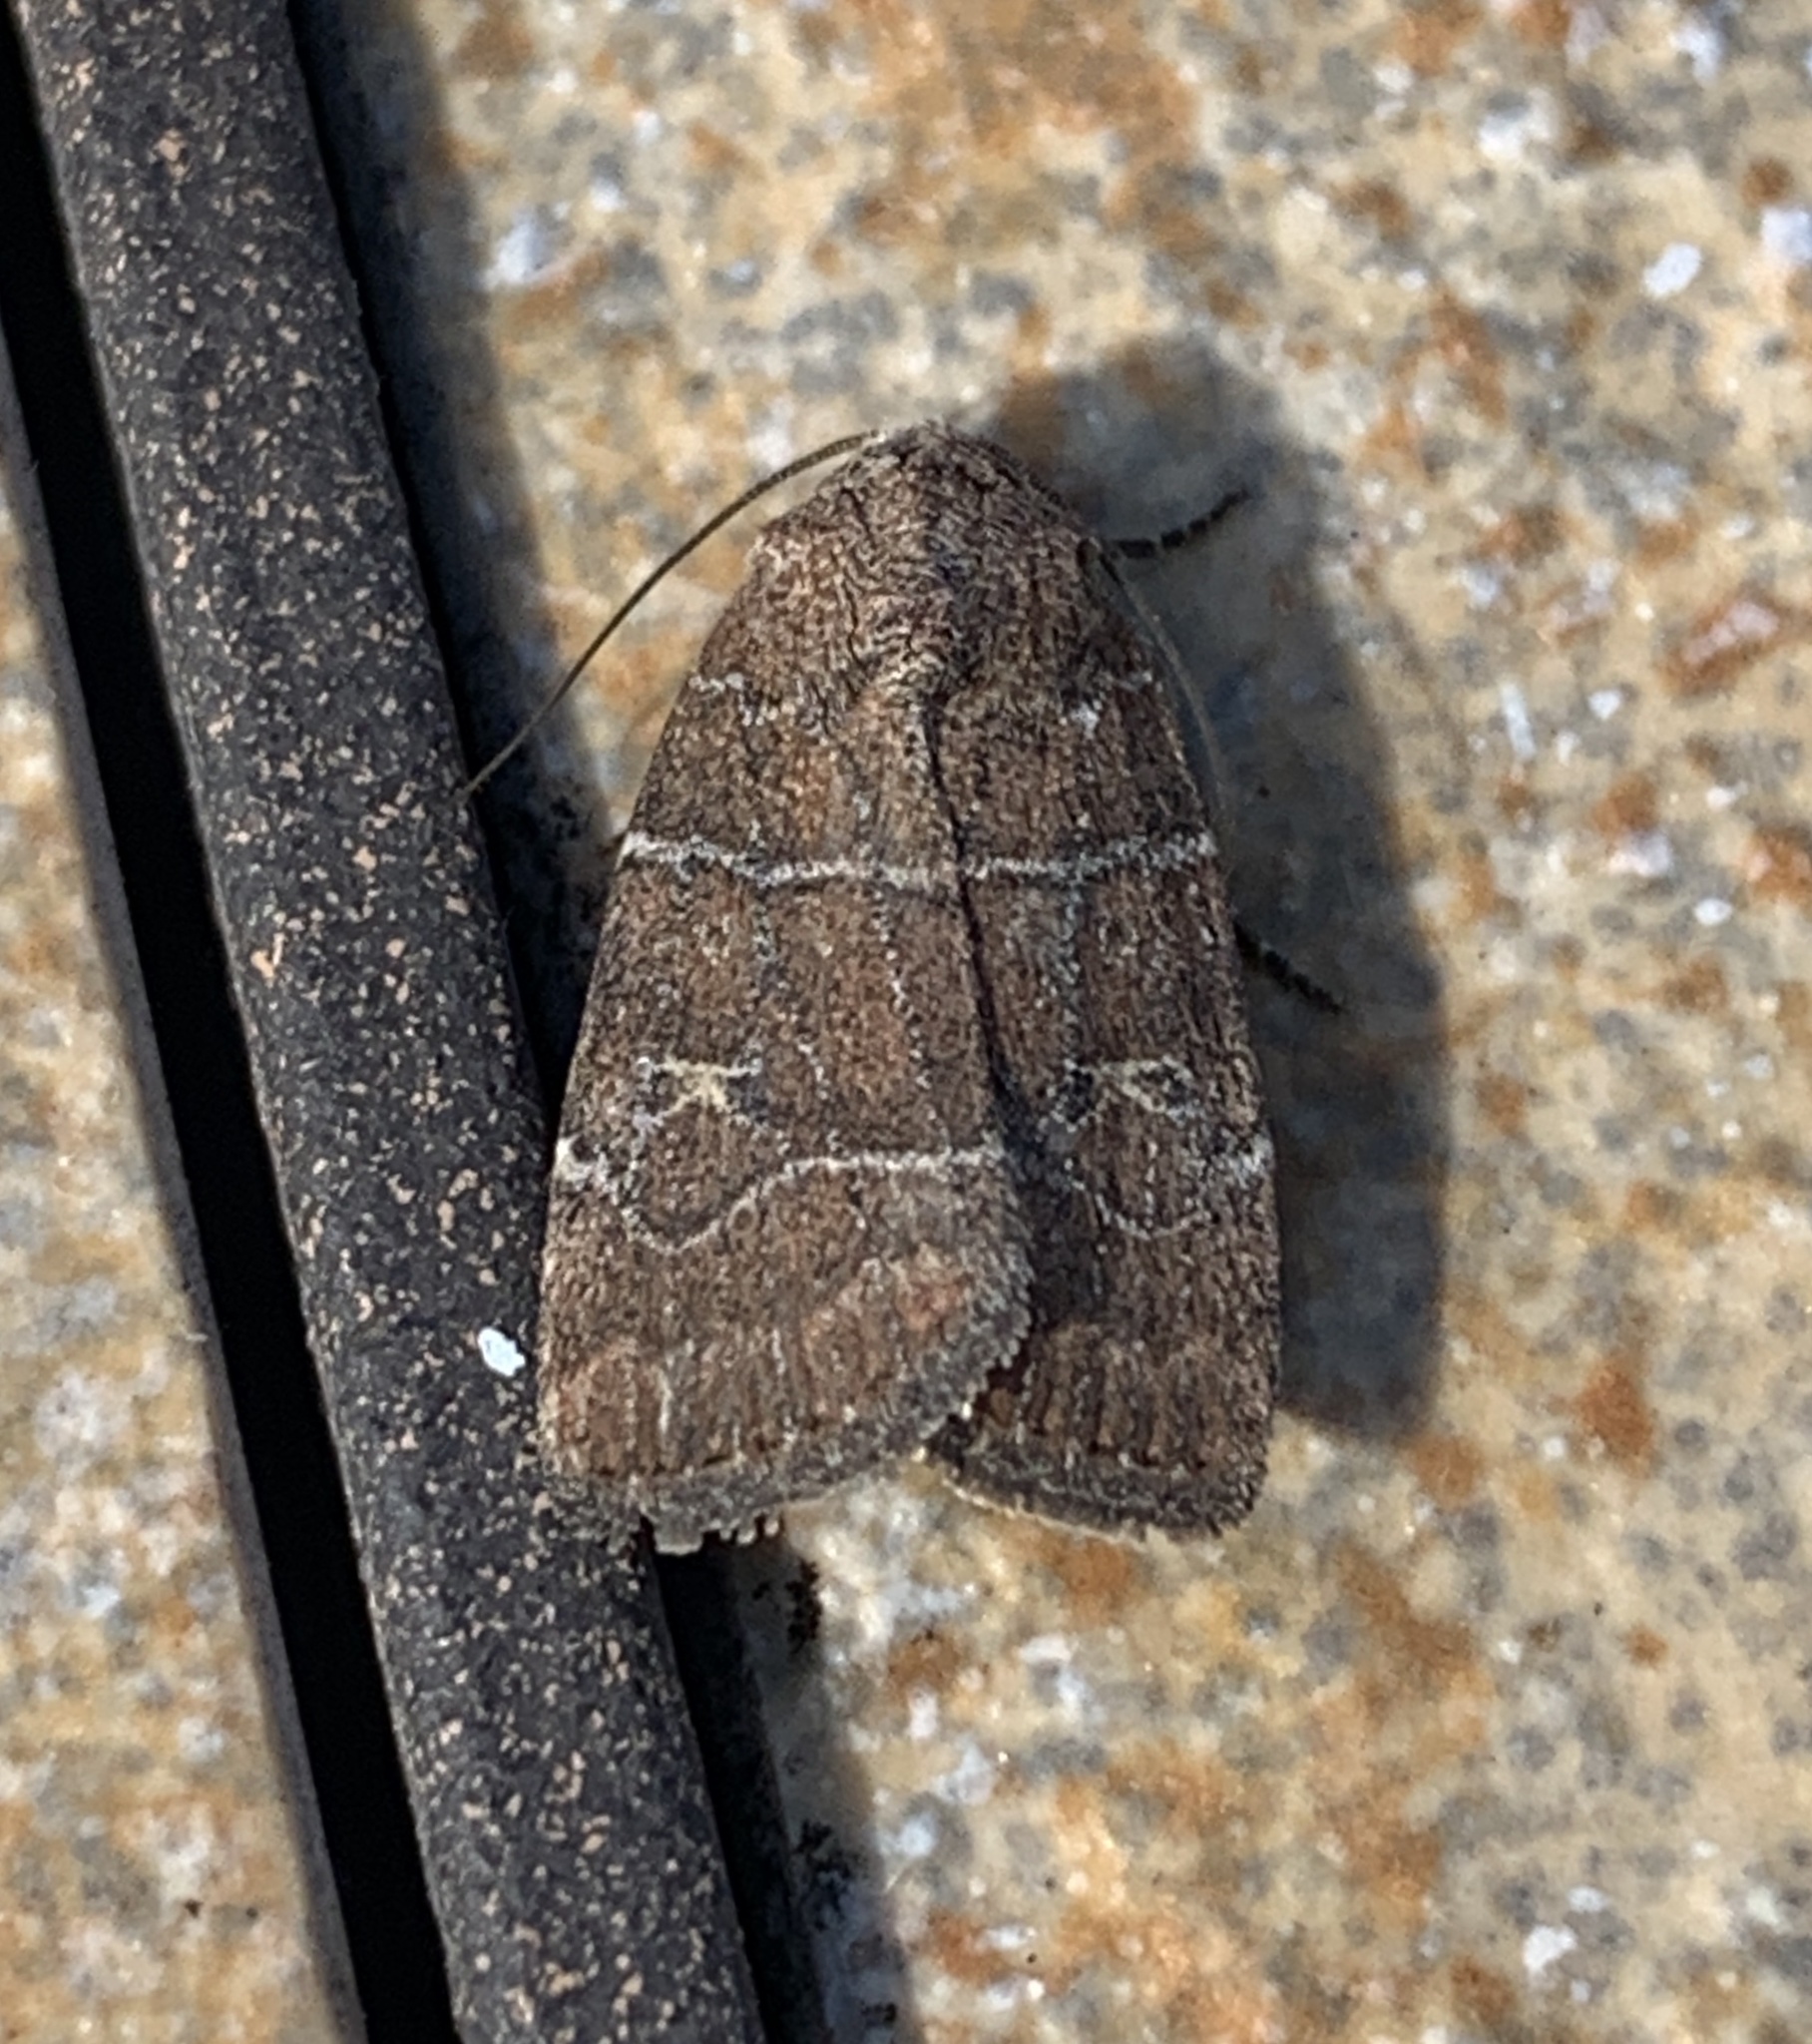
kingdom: Animalia
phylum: Arthropoda
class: Insecta
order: Lepidoptera
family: Noctuidae
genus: Elaphria
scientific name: Elaphria grata
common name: Grateful midget moth
